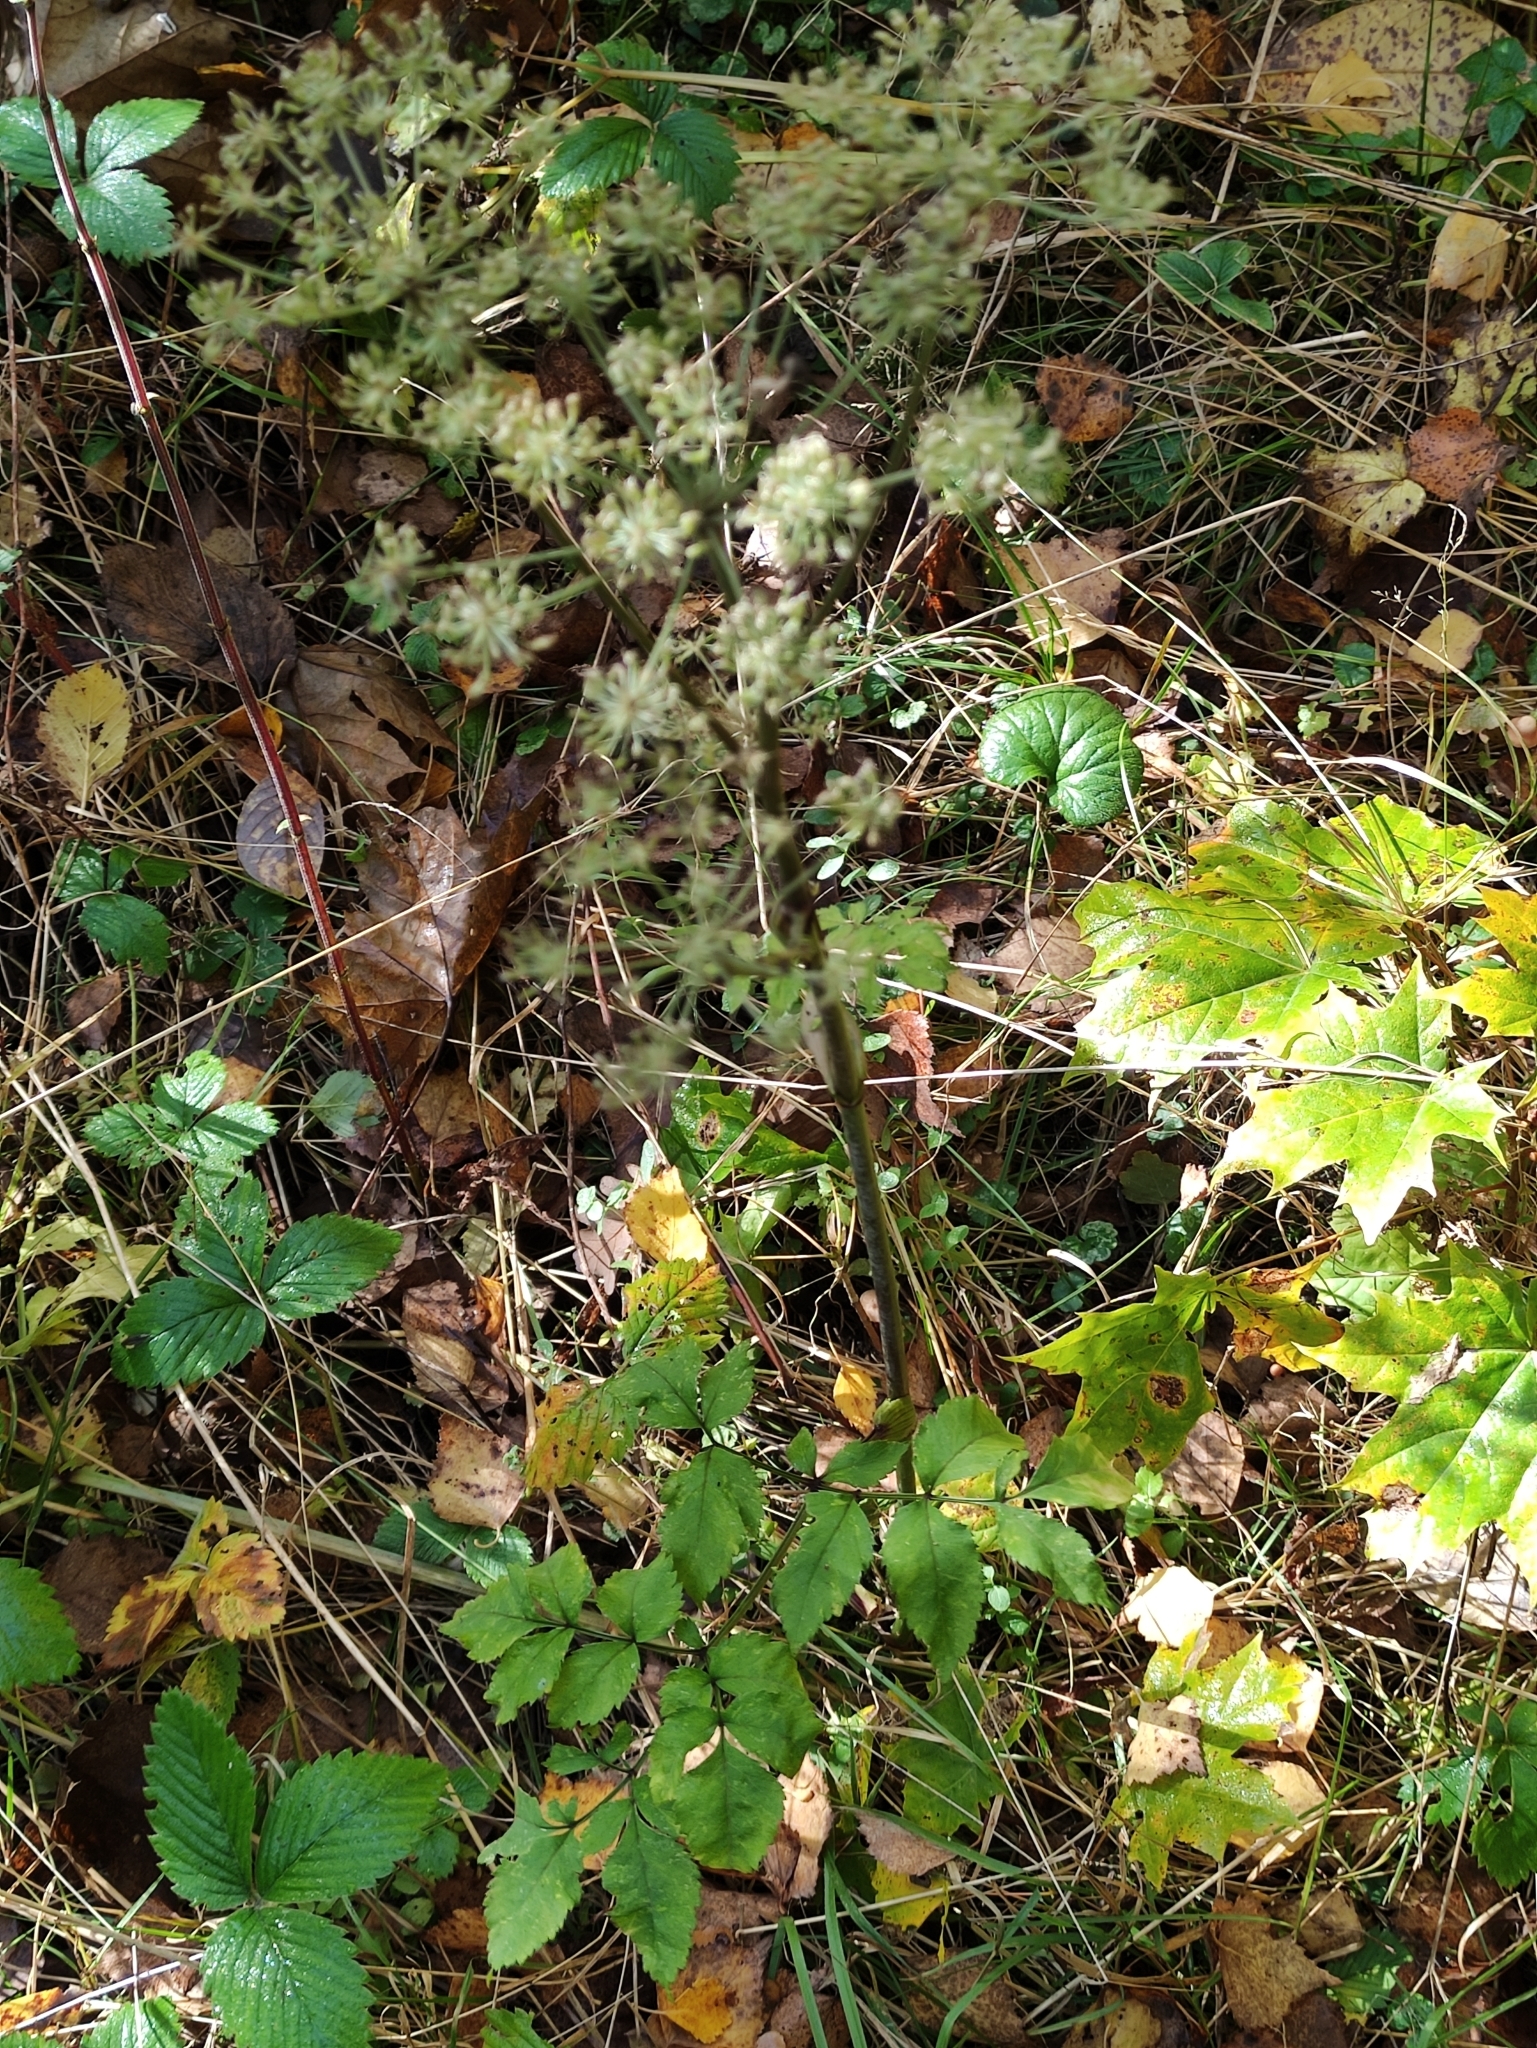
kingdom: Plantae
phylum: Tracheophyta
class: Magnoliopsida
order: Apiales
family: Apiaceae
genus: Angelica
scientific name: Angelica sylvestris
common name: Wild angelica
